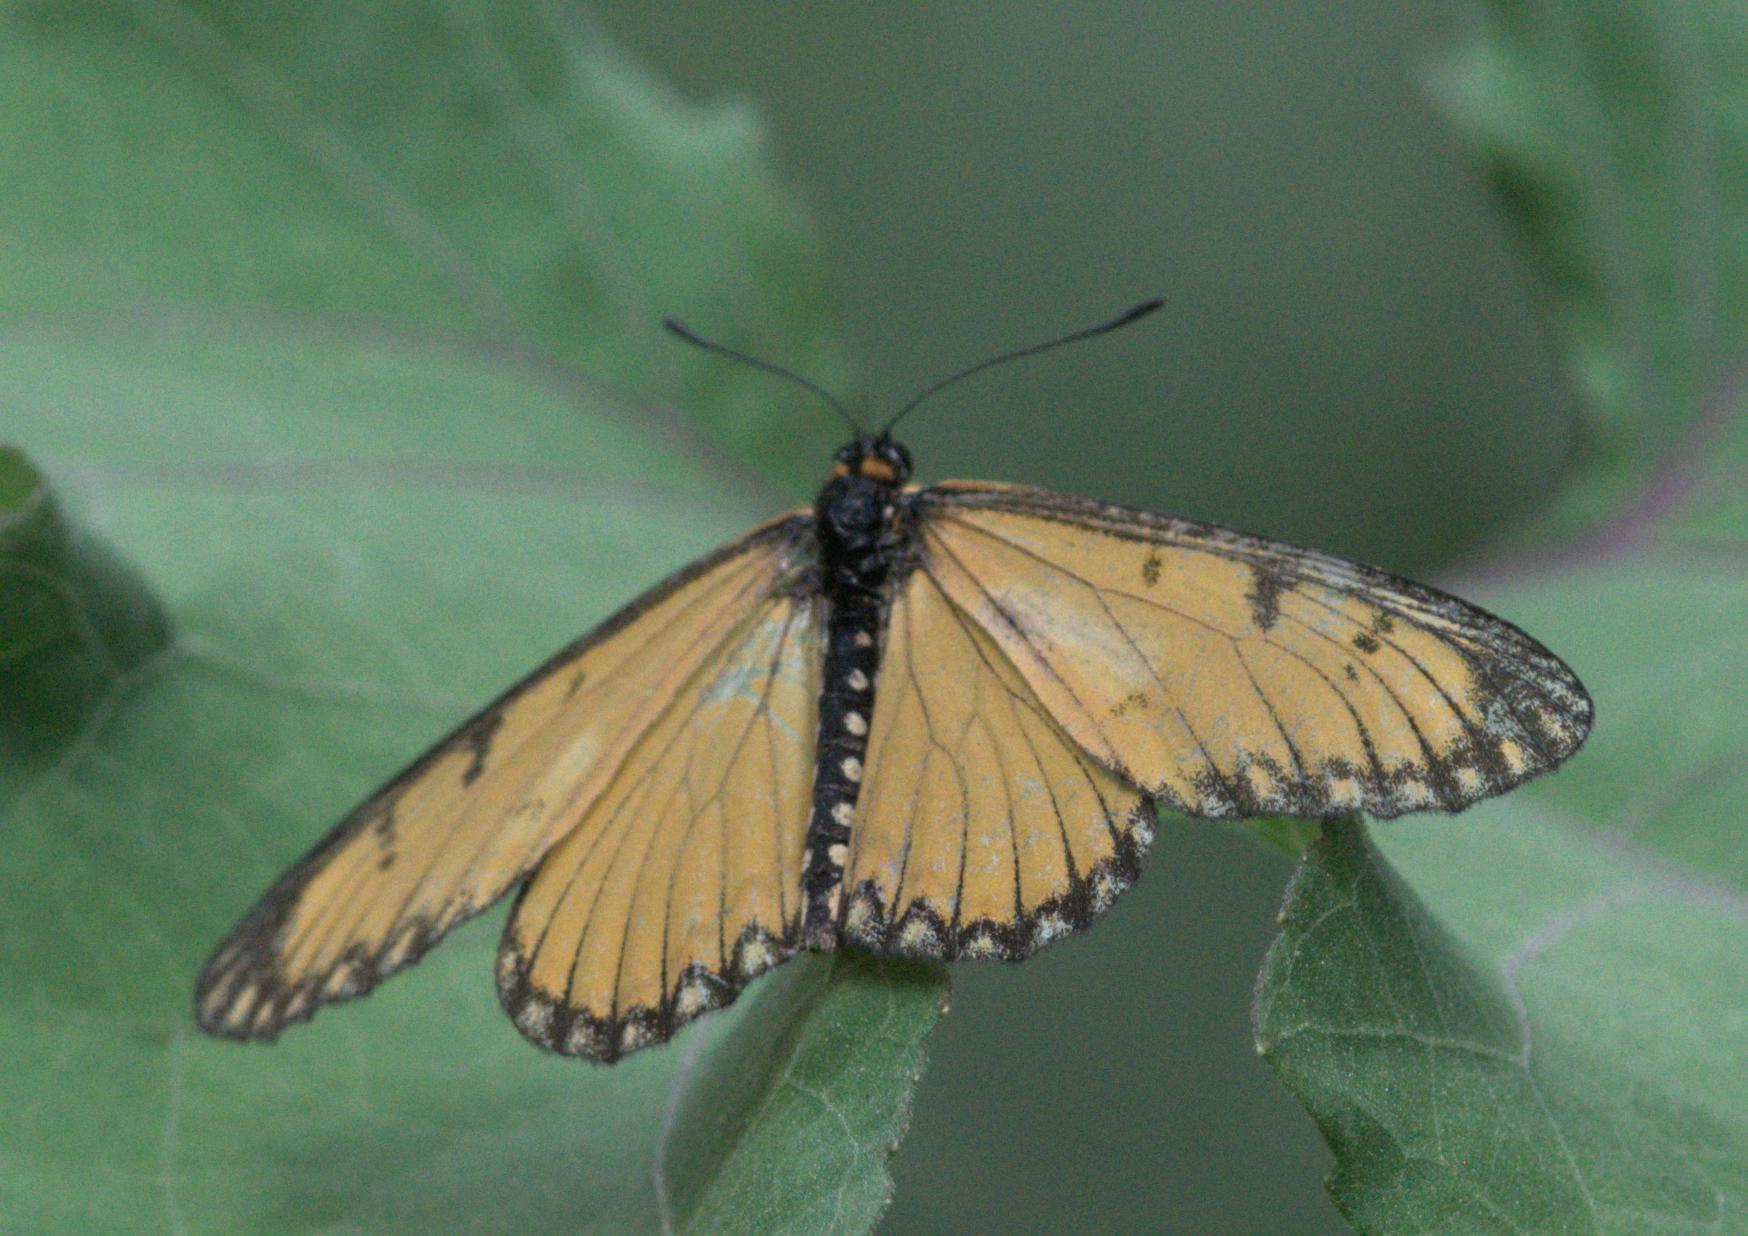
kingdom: Animalia
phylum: Arthropoda
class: Insecta
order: Lepidoptera
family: Nymphalidae
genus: Acraea
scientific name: Acraea Telchinia issoria
